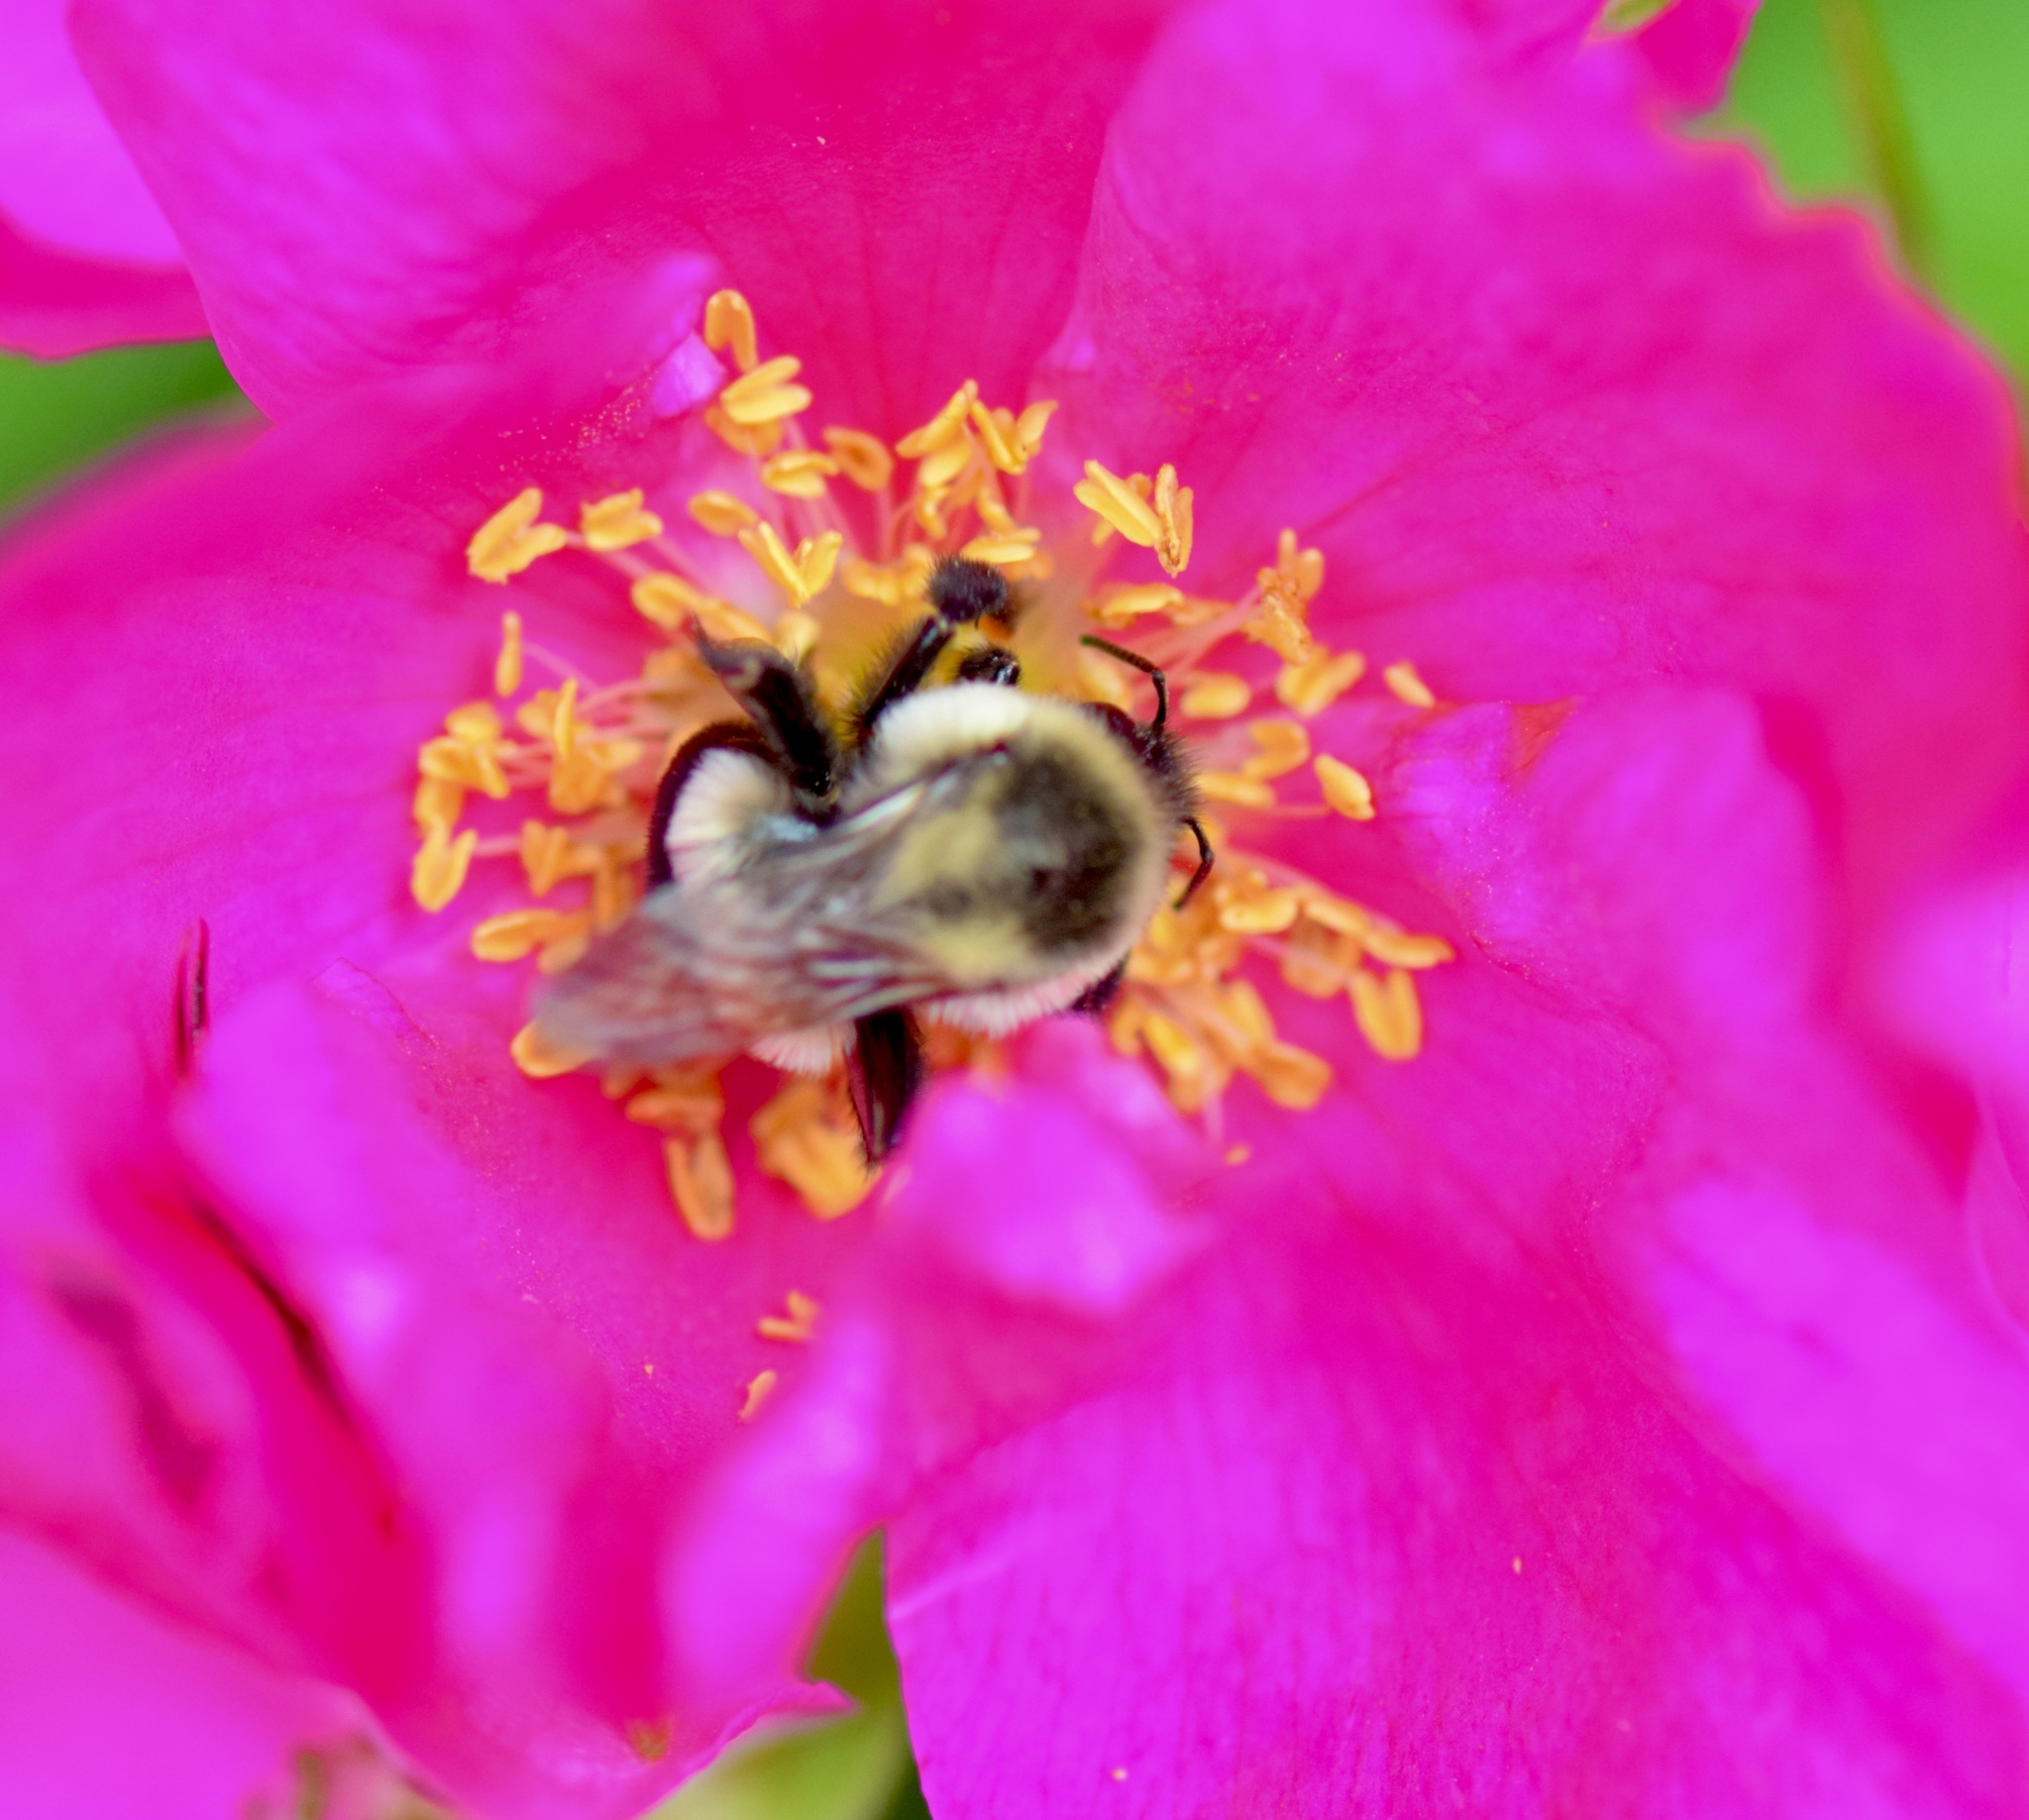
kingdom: Animalia
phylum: Arthropoda
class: Insecta
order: Hymenoptera
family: Apidae
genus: Bombus
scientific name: Bombus impatiens
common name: Common eastern bumble bee
